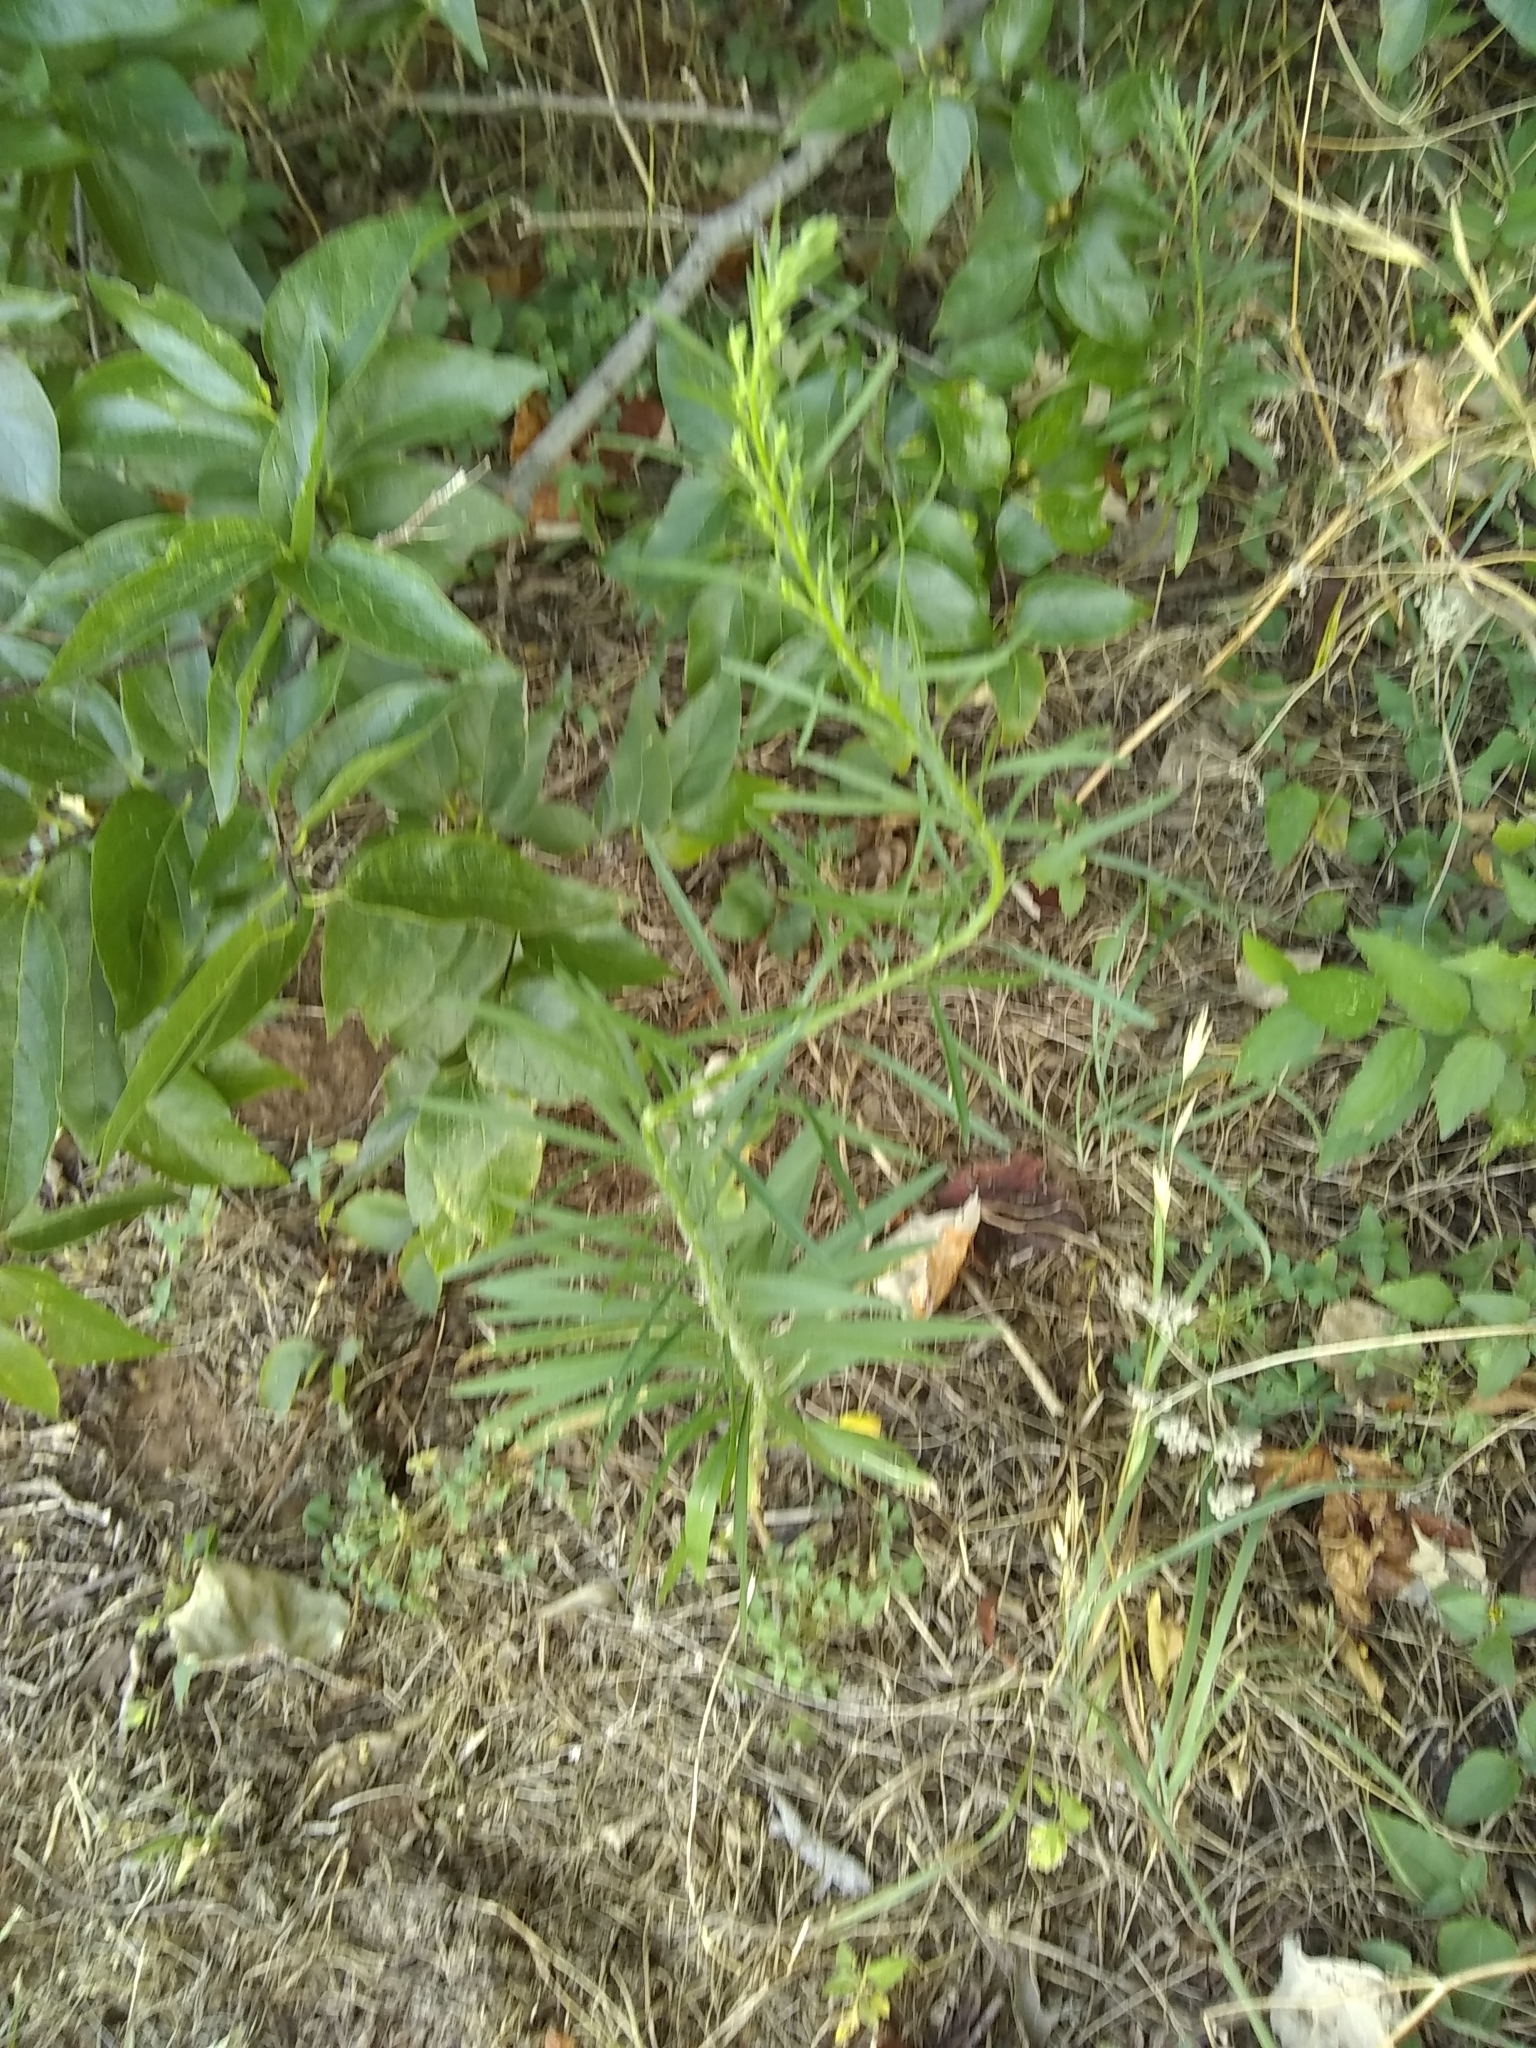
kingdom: Plantae
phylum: Tracheophyta
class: Magnoliopsida
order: Asterales
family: Asteraceae
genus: Erigeron
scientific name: Erigeron canadensis
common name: Canadian fleabane
